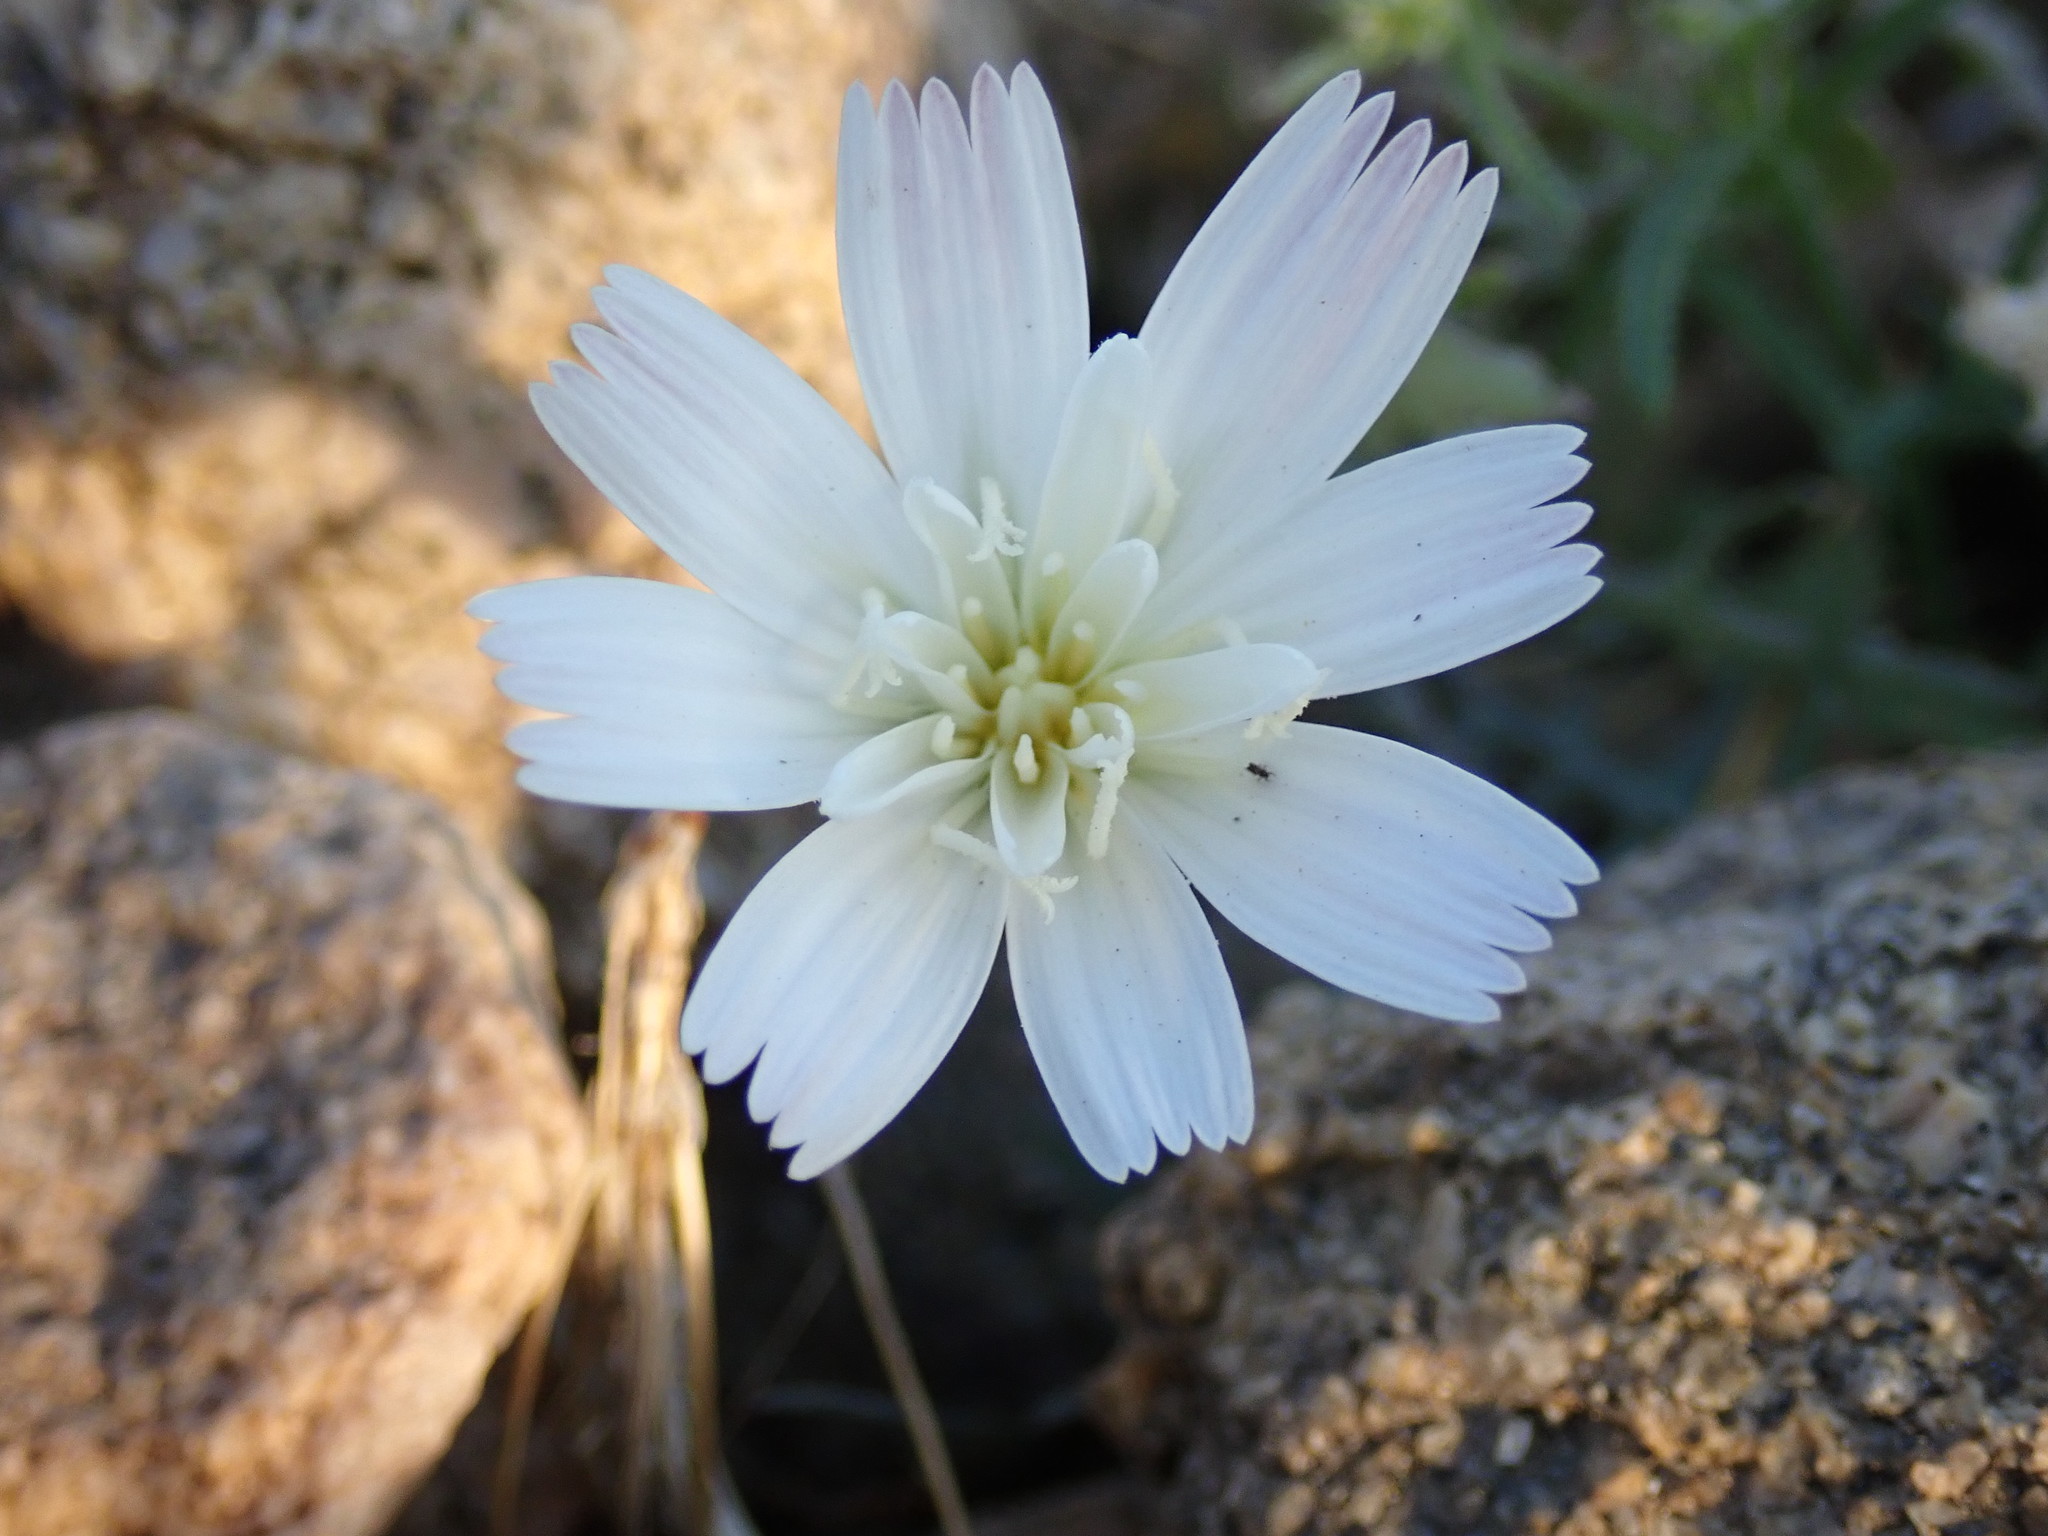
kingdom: Plantae
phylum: Tracheophyta
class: Magnoliopsida
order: Asterales
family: Asteraceae
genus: Rafinesquia
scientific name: Rafinesquia neomexicana
